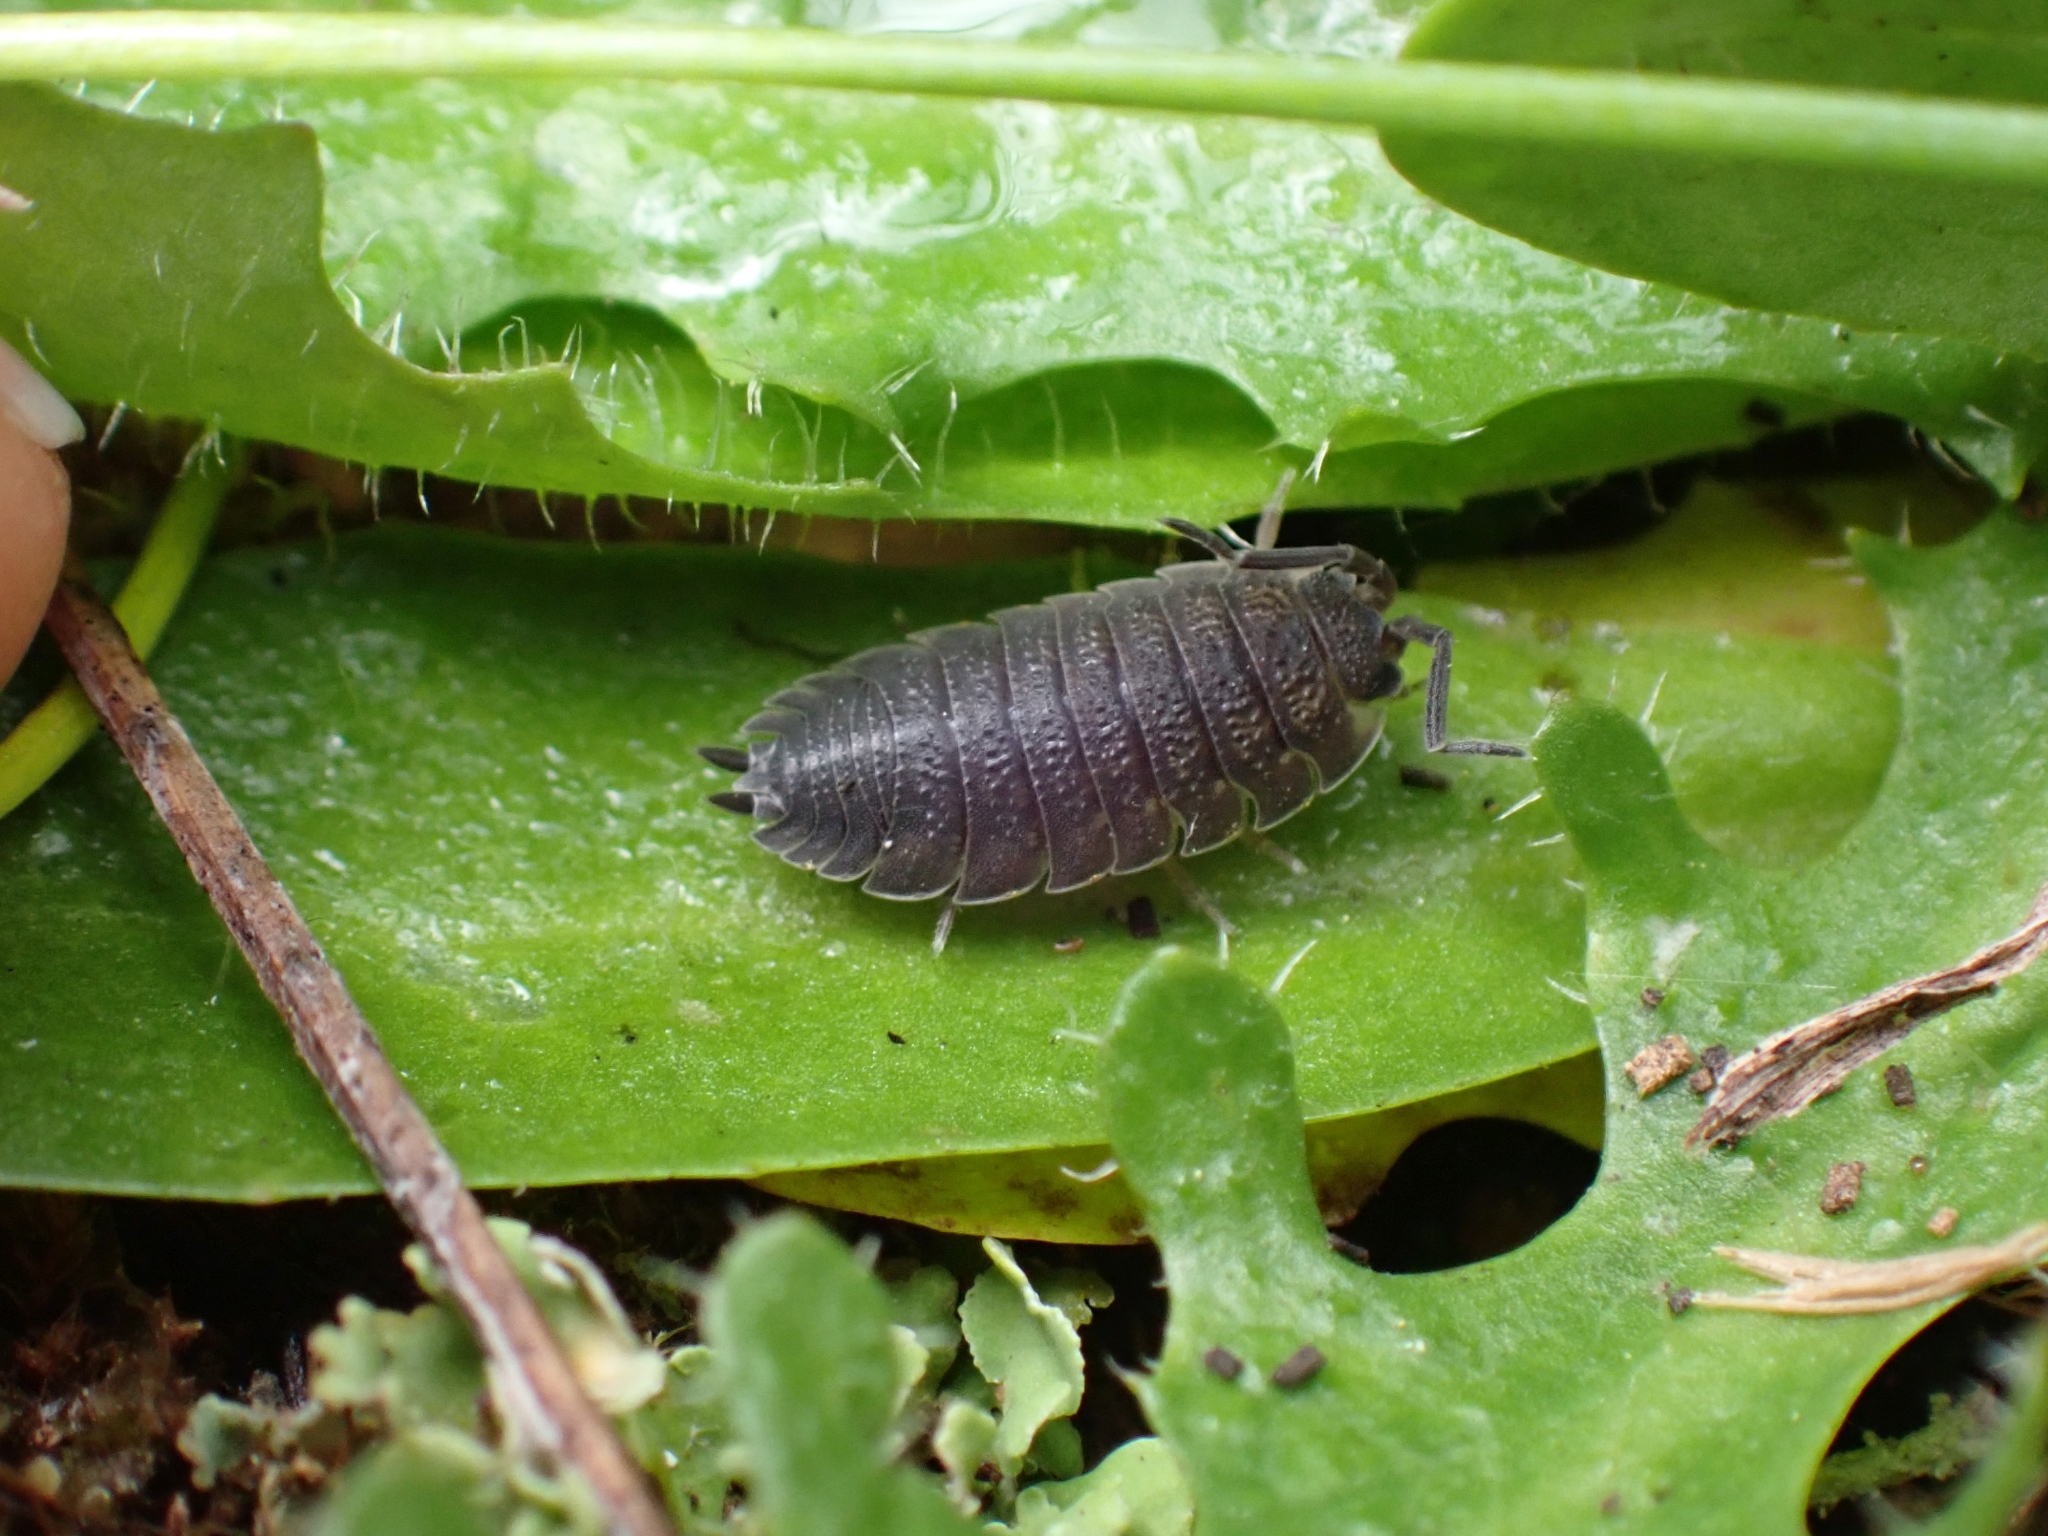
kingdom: Animalia
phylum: Arthropoda
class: Malacostraca
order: Isopoda
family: Porcellionidae
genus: Porcellio
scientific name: Porcellio scaber
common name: Common rough woodlouse
